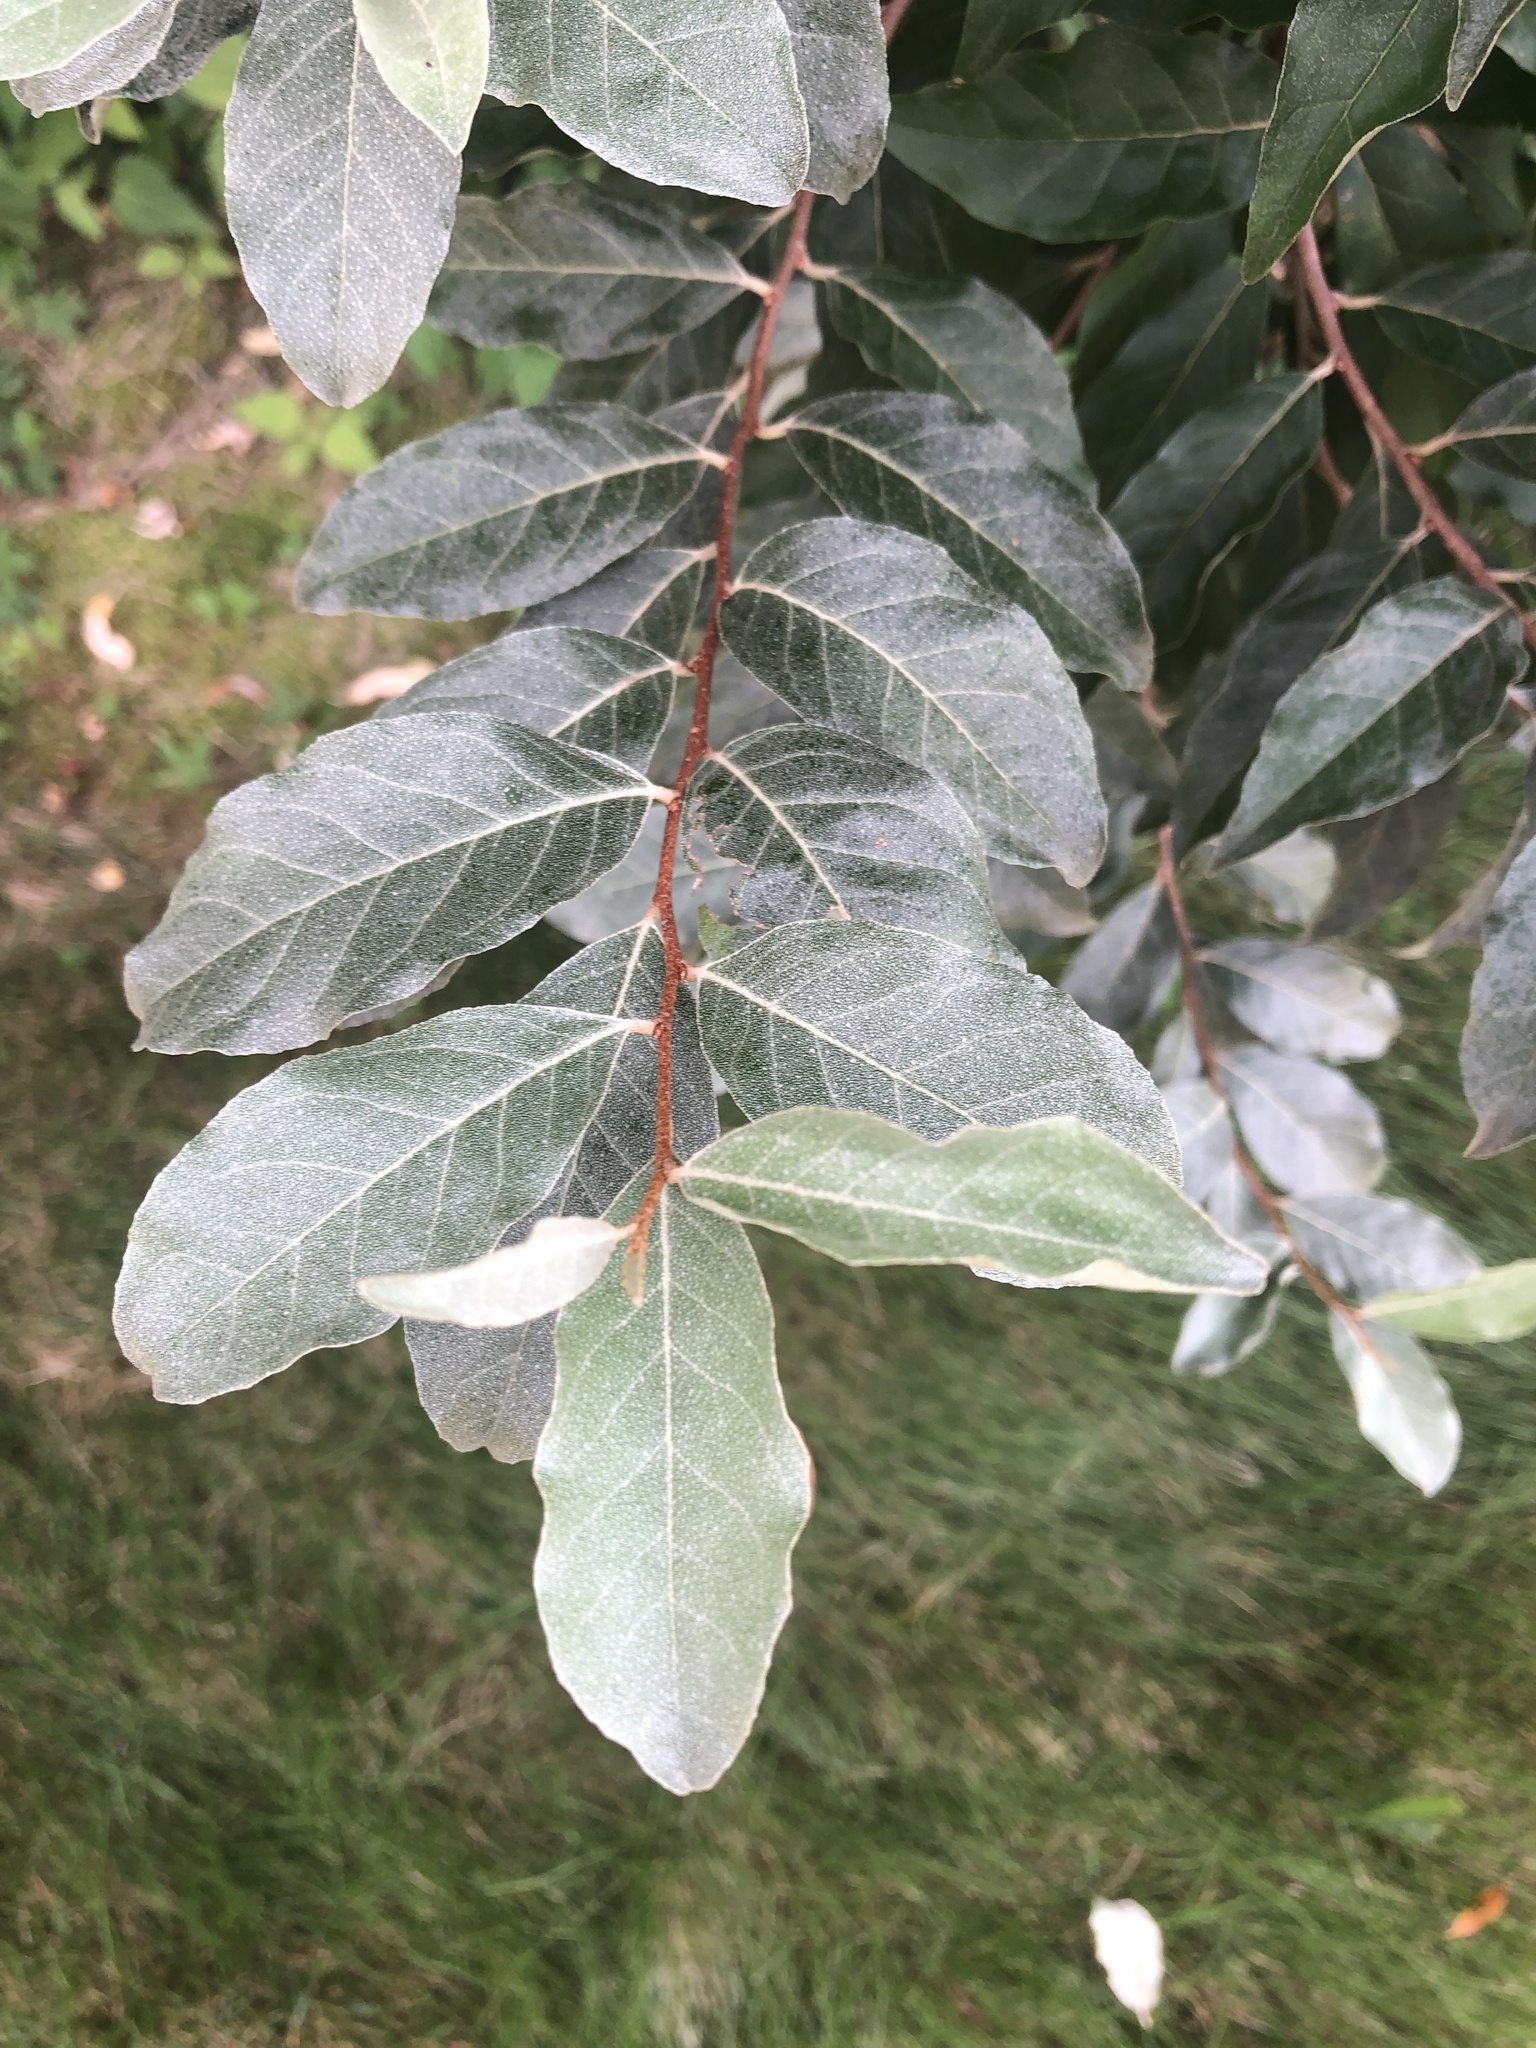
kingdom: Plantae
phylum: Tracheophyta
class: Magnoliopsida
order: Rosales
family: Elaeagnaceae
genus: Elaeagnus
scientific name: Elaeagnus umbellata
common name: Autumn olive
